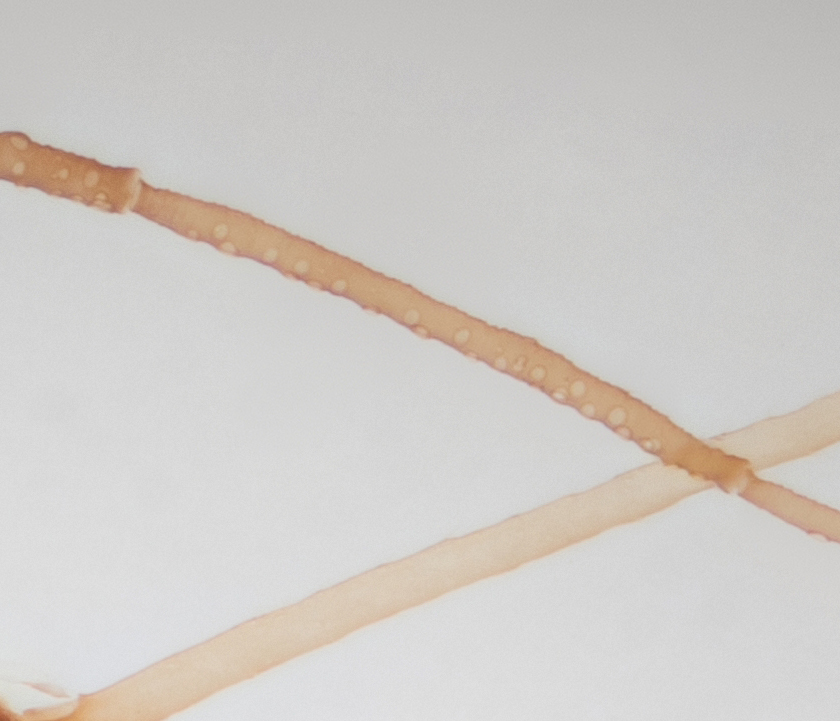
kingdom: Animalia
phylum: Arthropoda
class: Insecta
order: Hemiptera
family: Aphididae
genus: Hyperomyzus
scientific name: Hyperomyzus lactucae
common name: Sow thistle aphid
